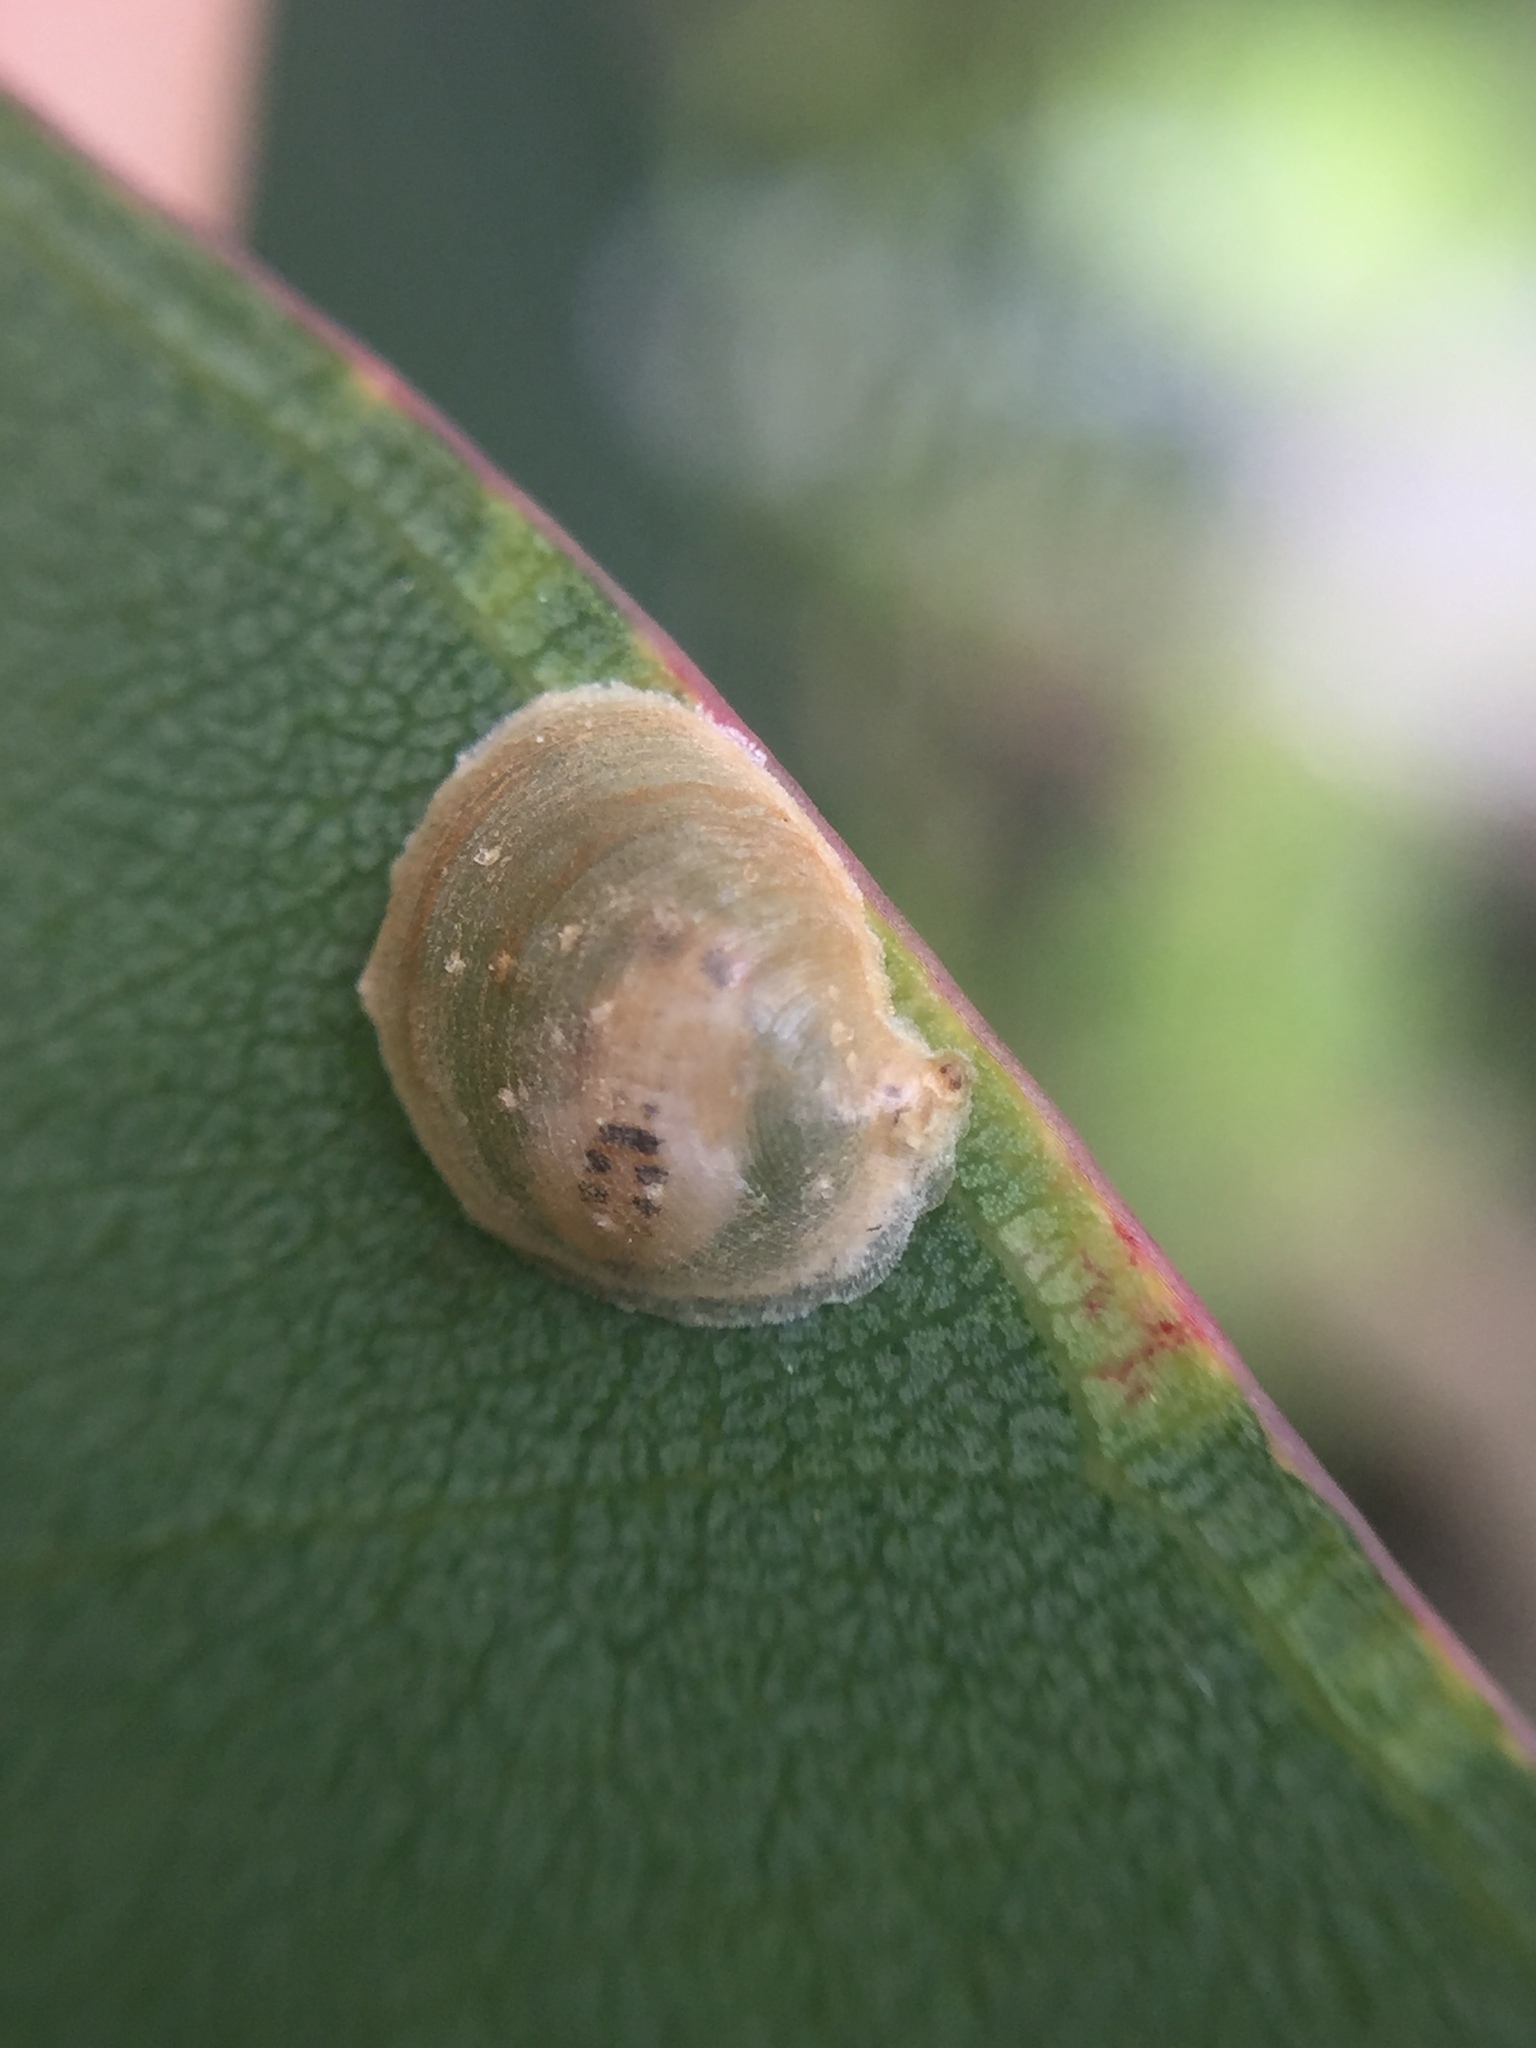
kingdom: Animalia
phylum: Arthropoda
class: Insecta
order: Hemiptera
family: Aphalaridae
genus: Creiis
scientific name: Creiis lituratus
